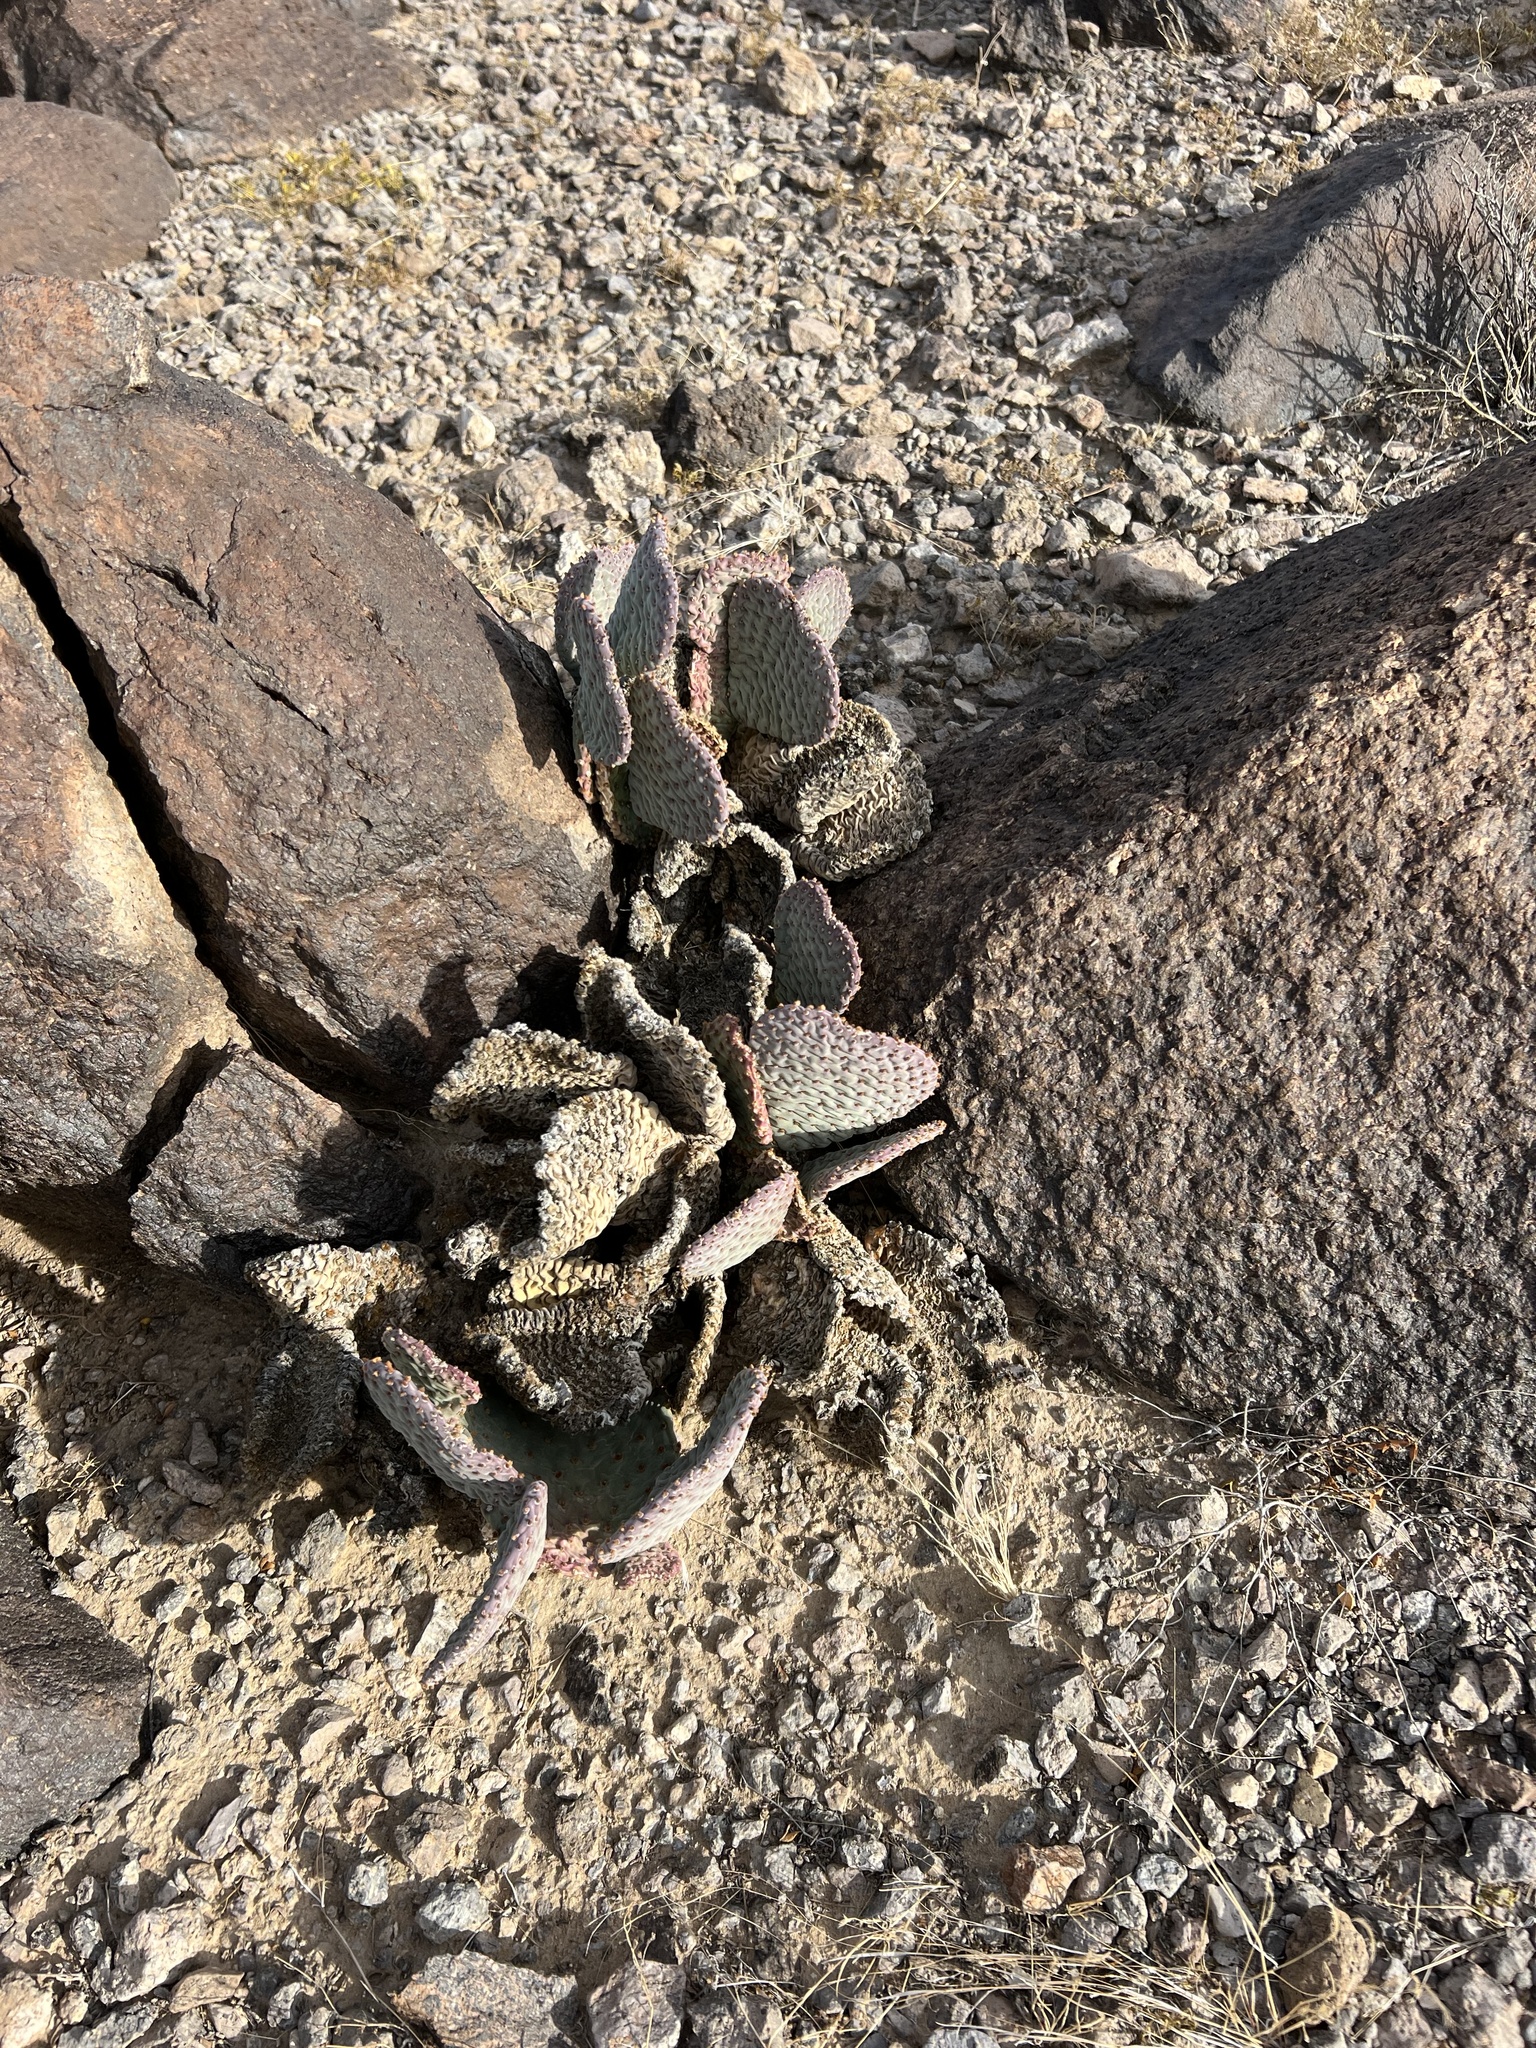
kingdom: Plantae
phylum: Tracheophyta
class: Magnoliopsida
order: Caryophyllales
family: Cactaceae
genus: Opuntia
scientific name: Opuntia basilaris
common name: Beavertail prickly-pear
